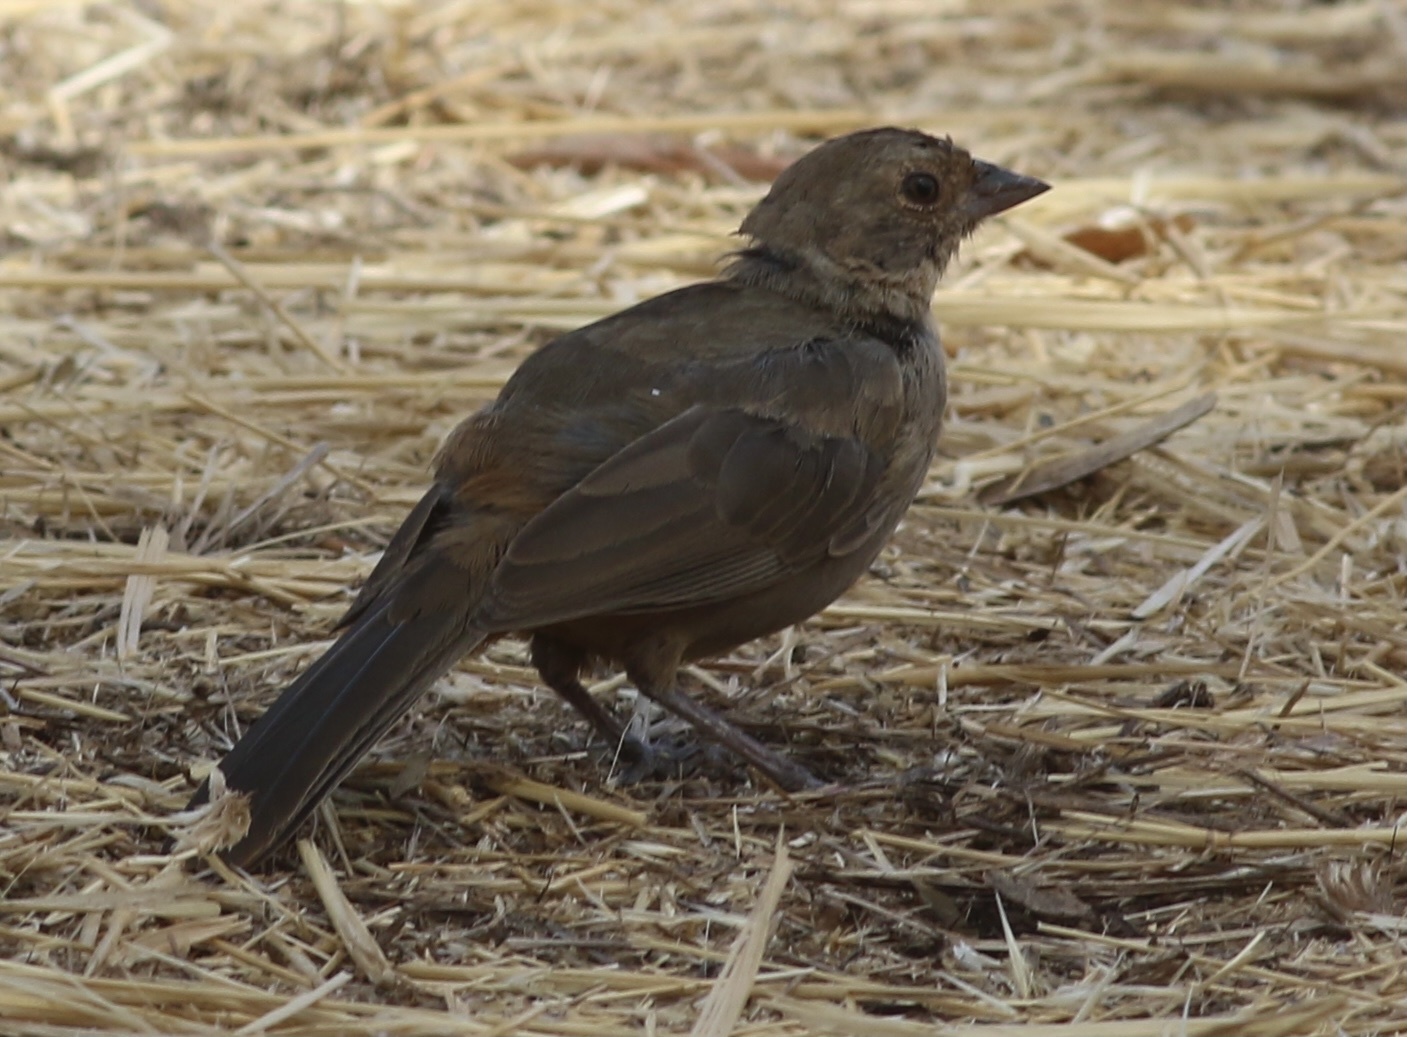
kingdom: Animalia
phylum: Chordata
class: Aves
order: Passeriformes
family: Passerellidae
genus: Melozone
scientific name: Melozone crissalis
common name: California towhee
